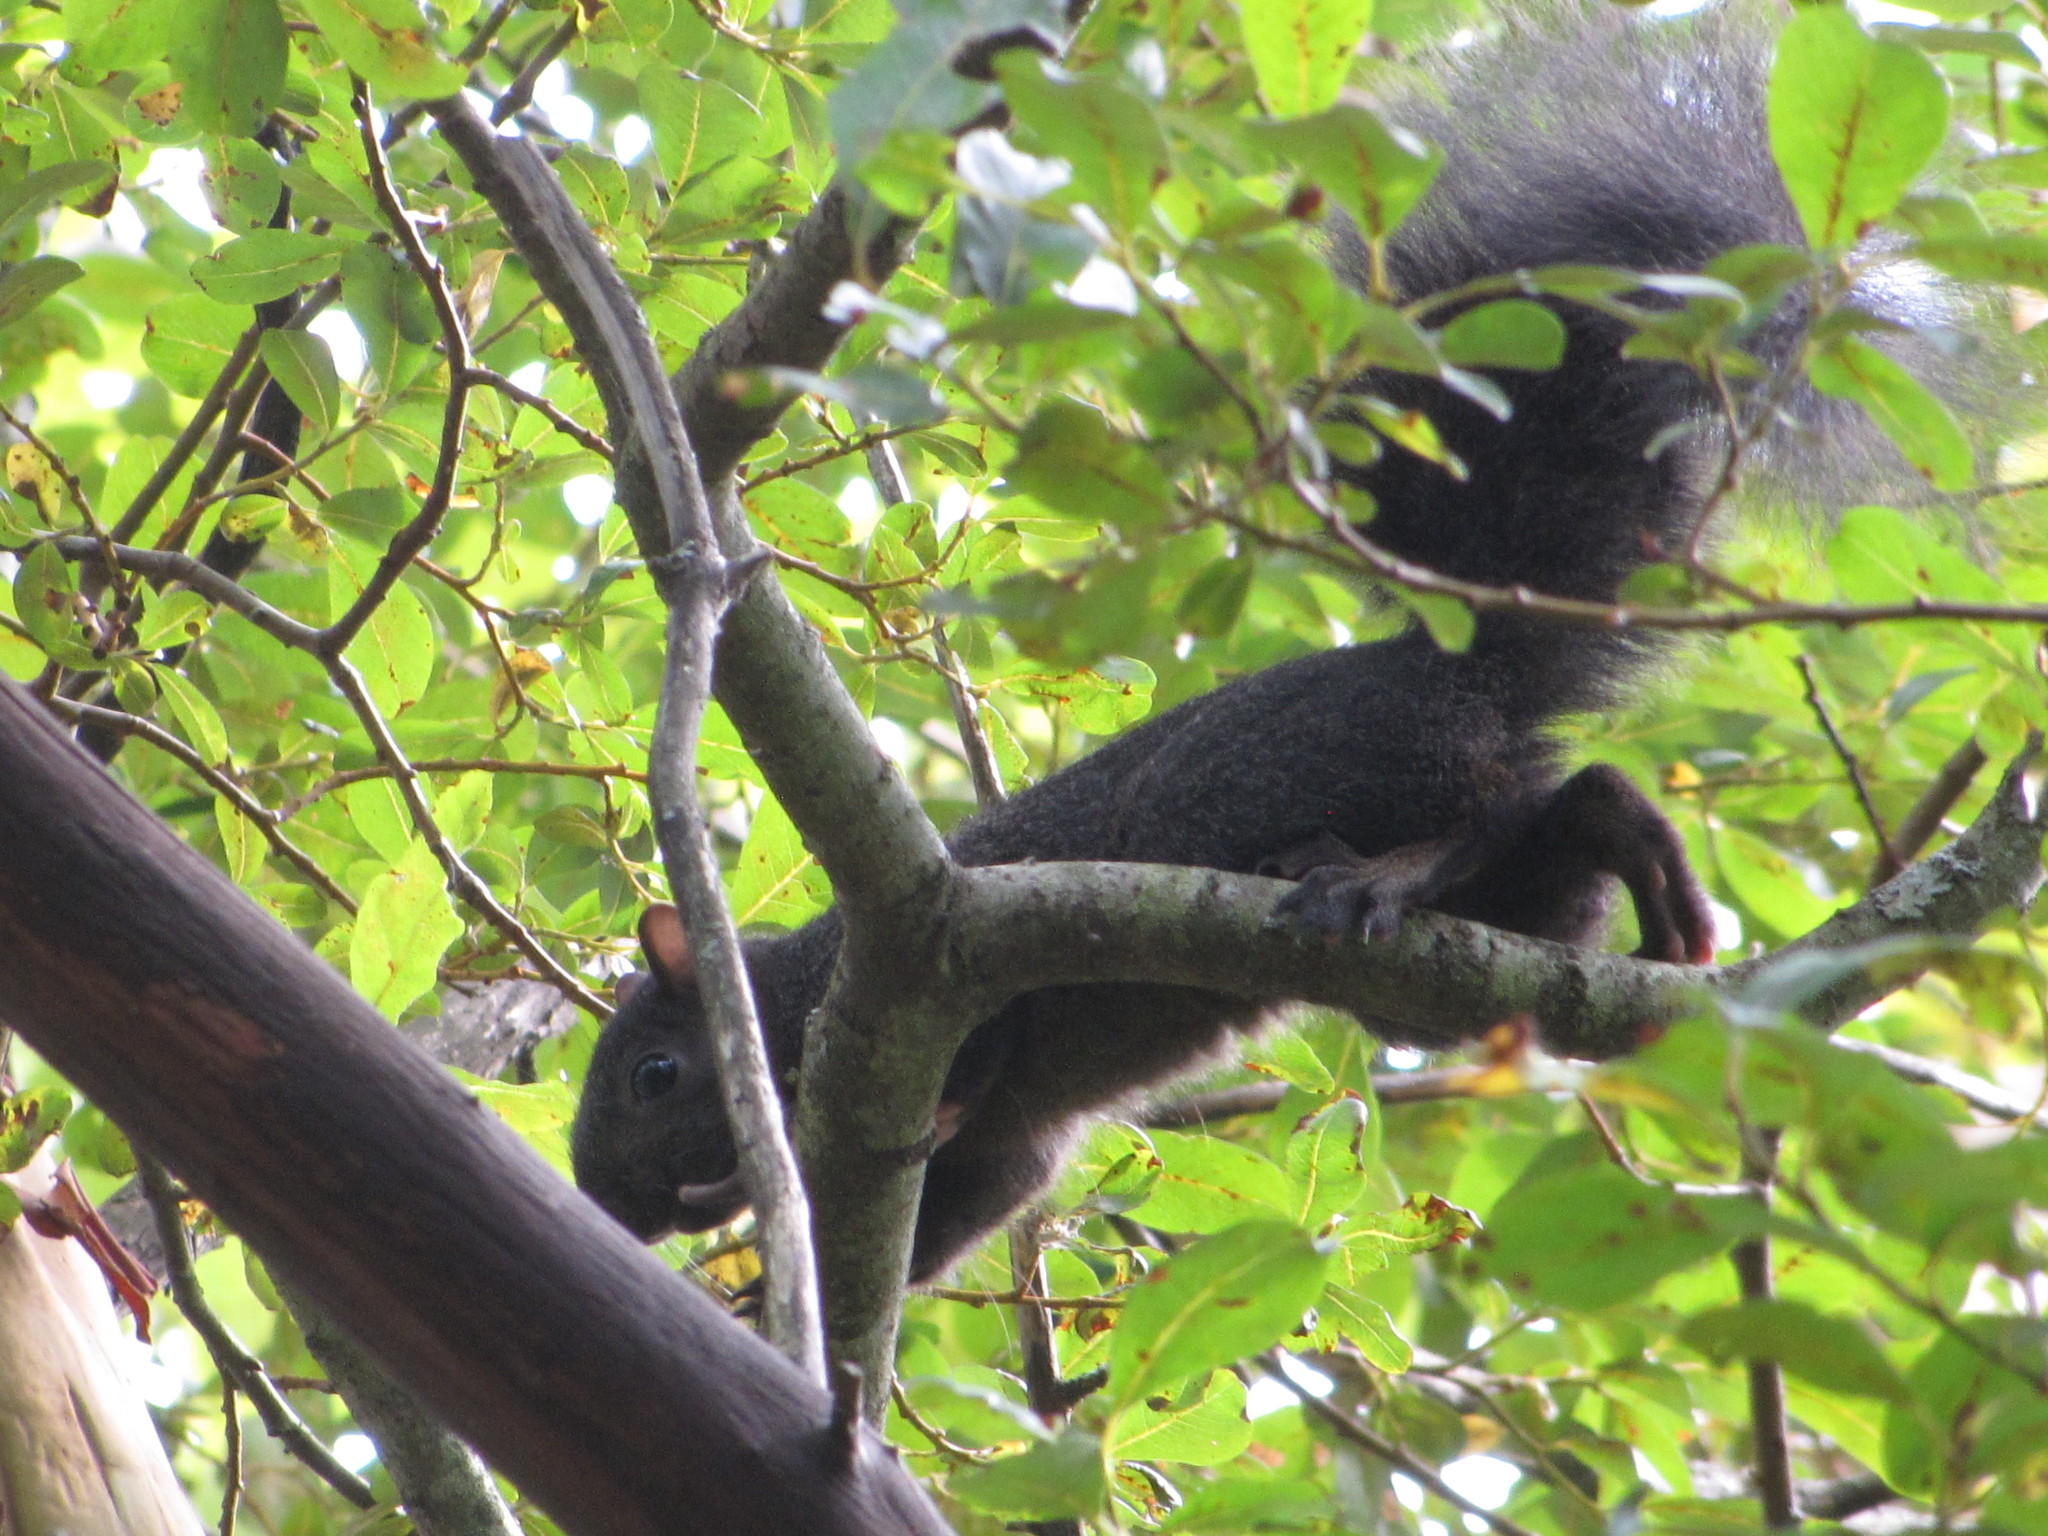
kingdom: Animalia
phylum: Chordata
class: Mammalia
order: Rodentia
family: Sciuridae
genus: Sciurus
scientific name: Sciurus carolinensis
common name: Eastern gray squirrel
